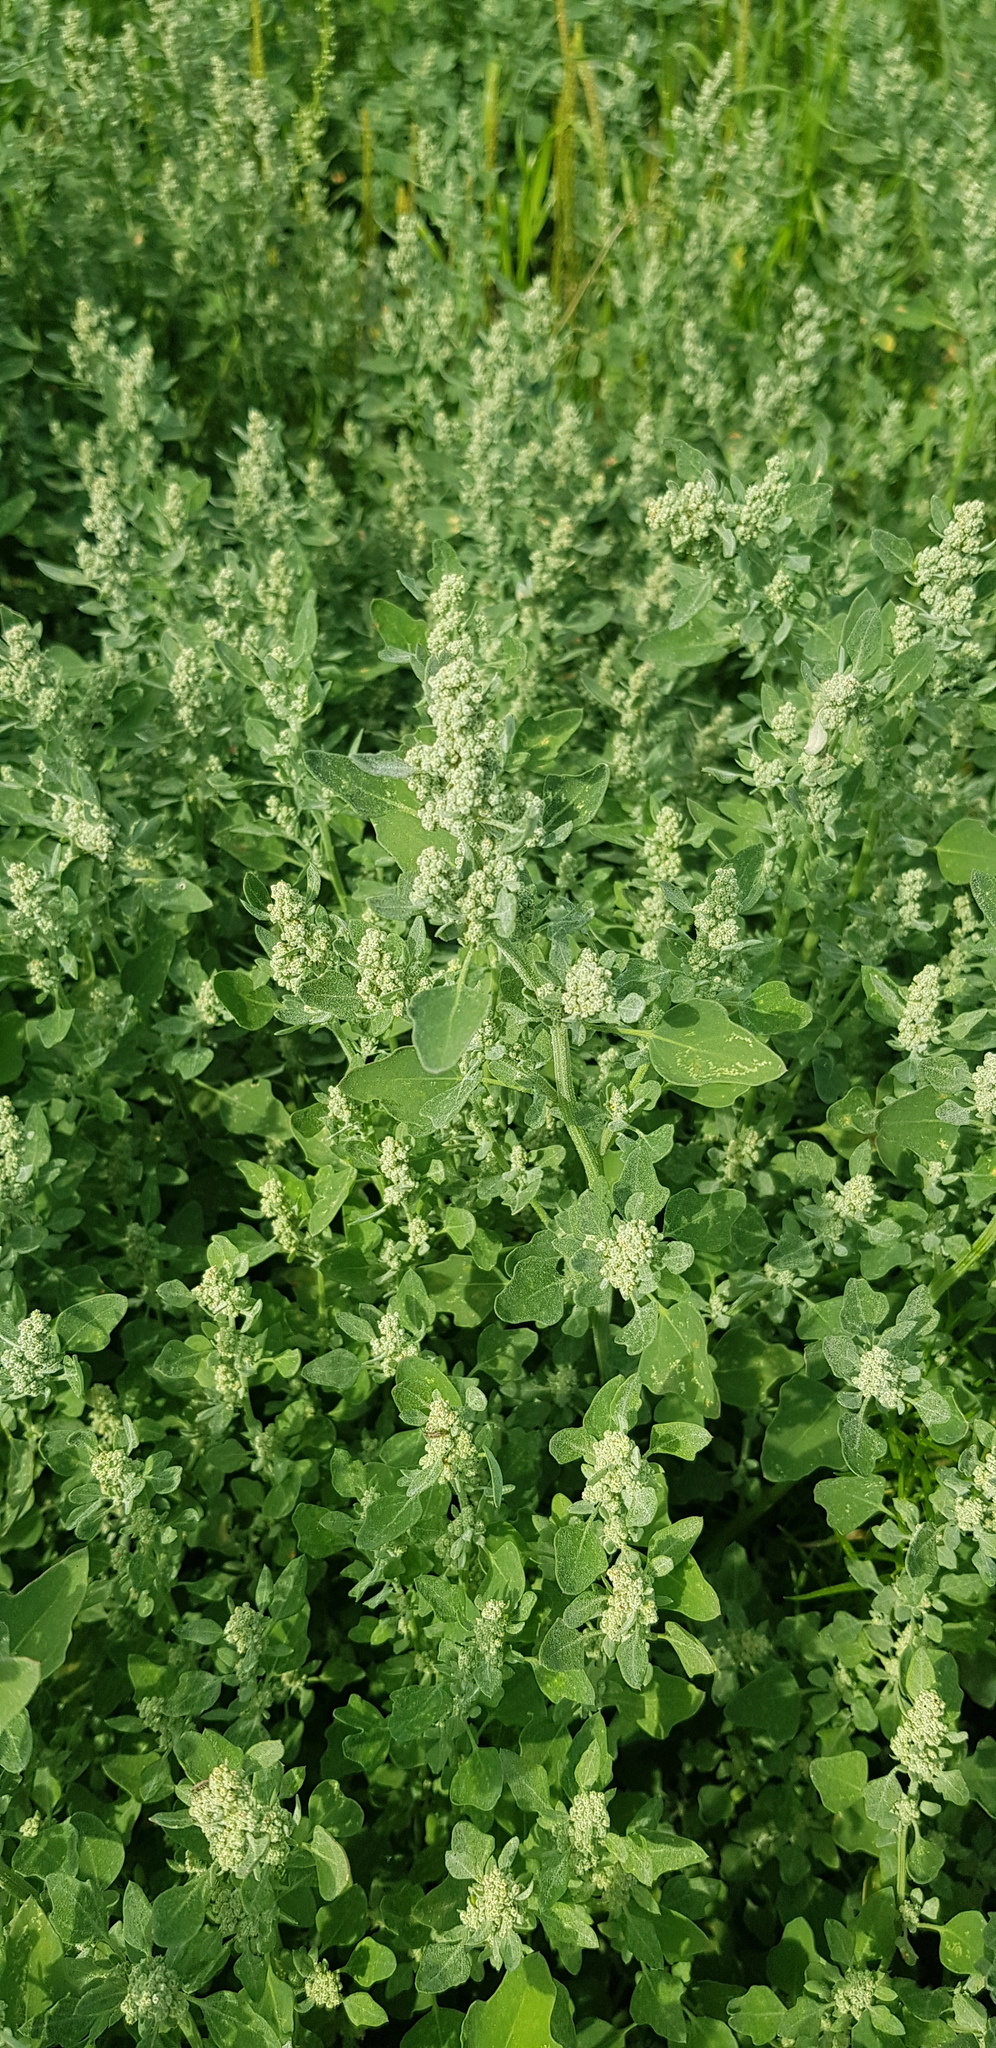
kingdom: Plantae
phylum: Tracheophyta
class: Magnoliopsida
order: Caryophyllales
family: Amaranthaceae
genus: Chenopodium
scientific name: Chenopodium album
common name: Fat-hen
